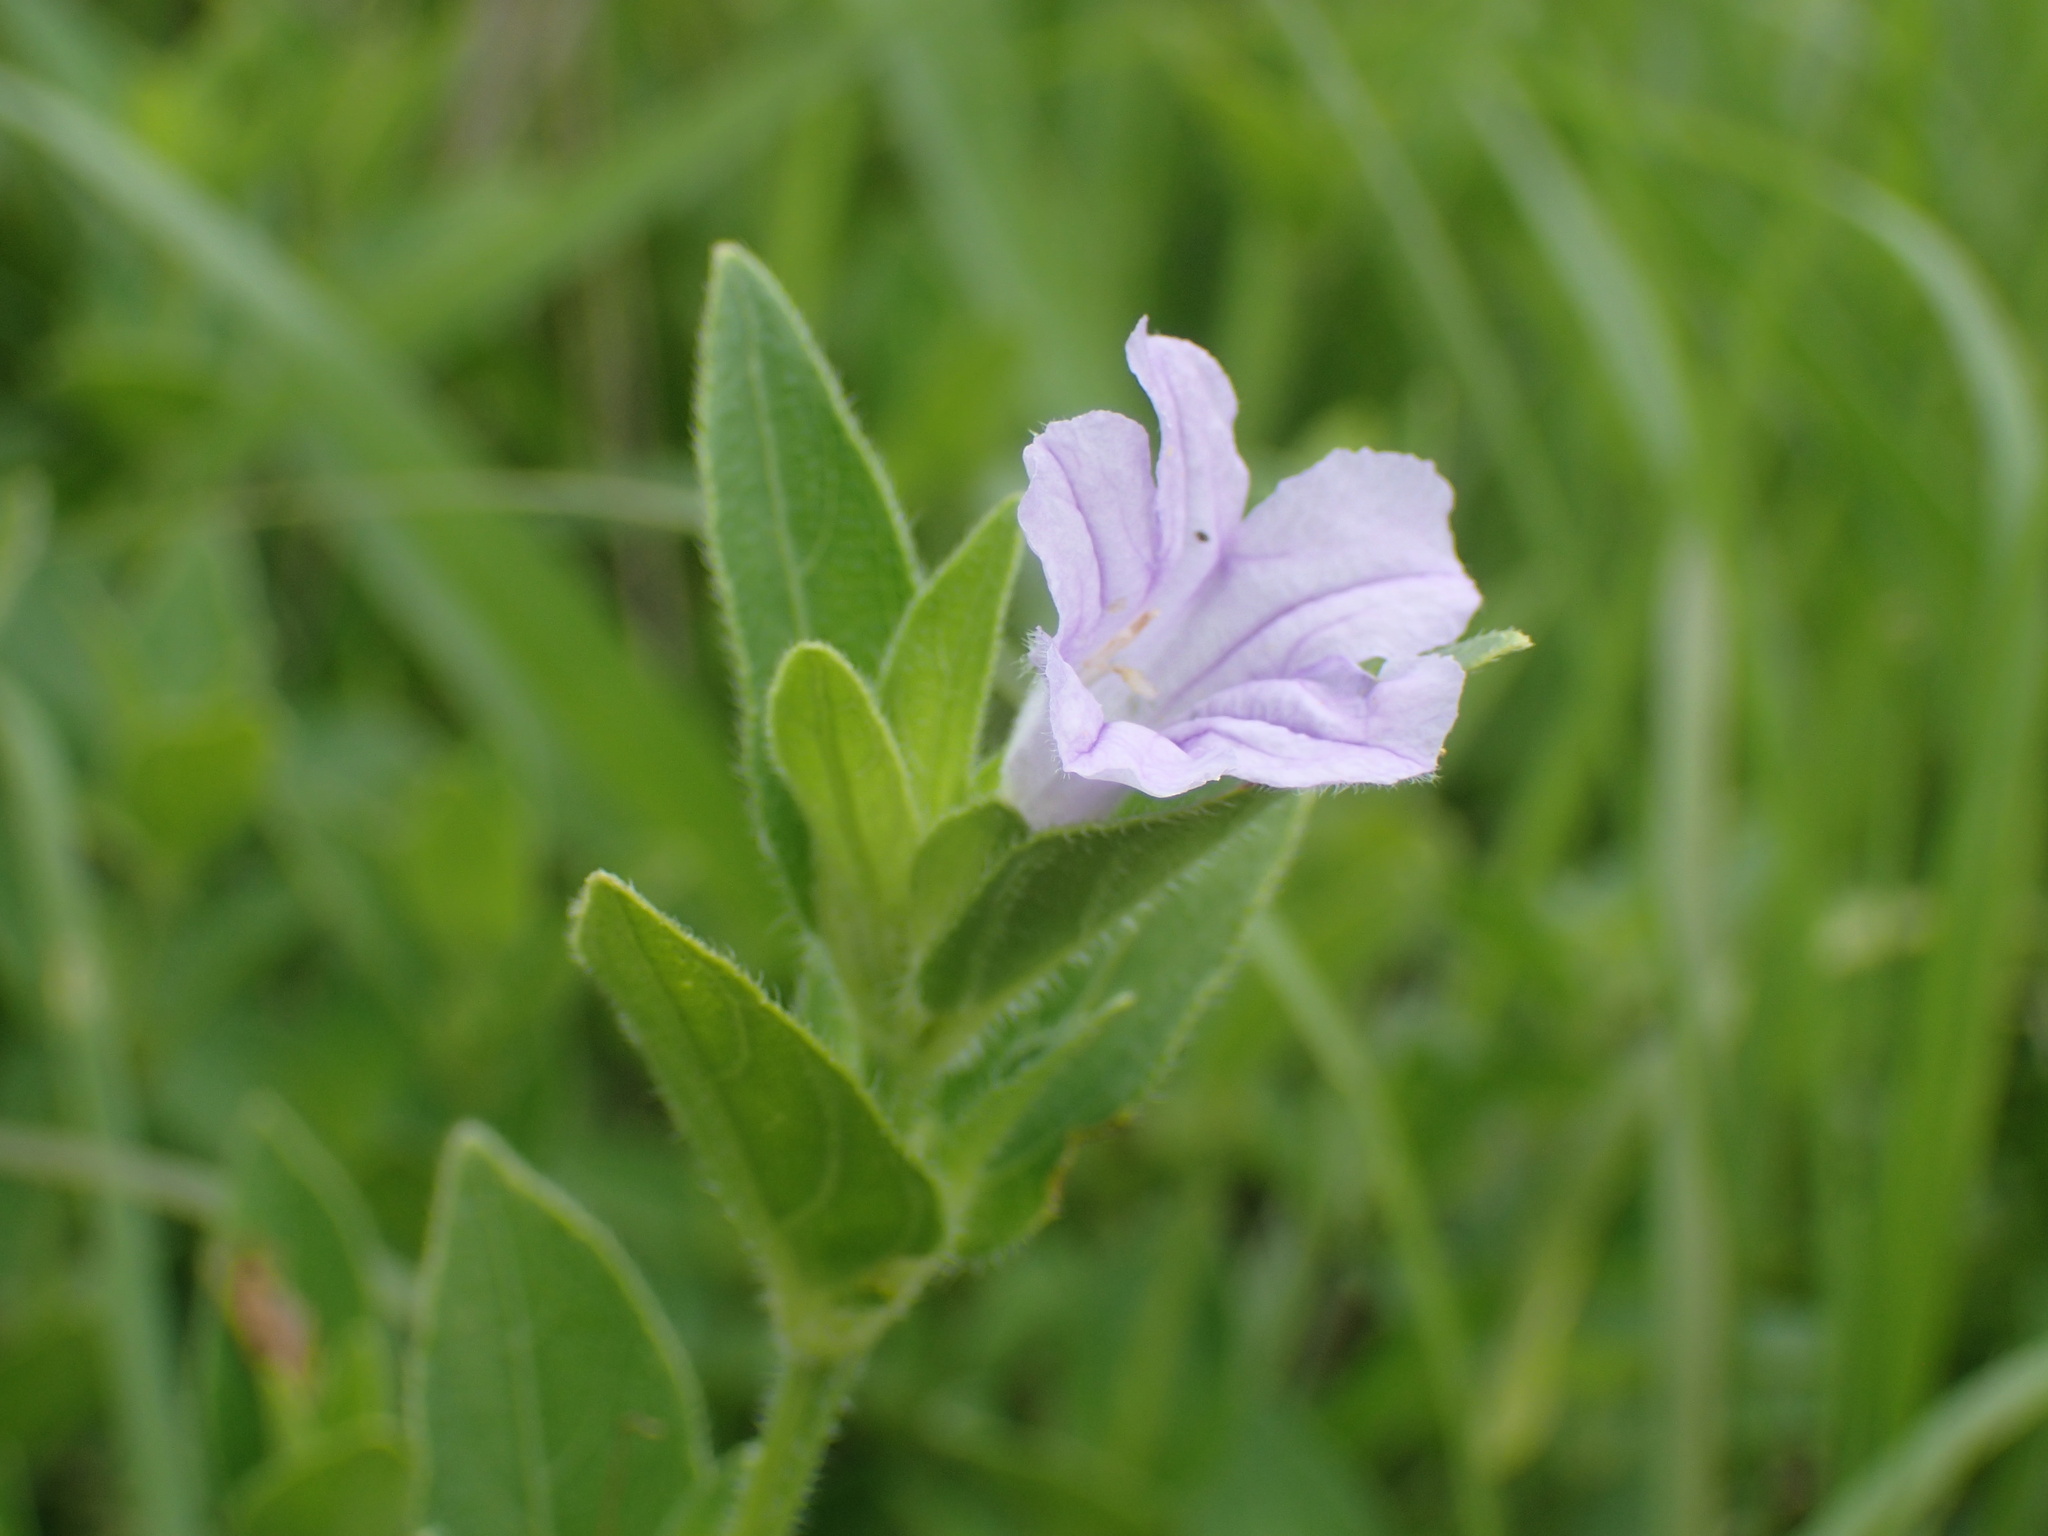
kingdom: Plantae
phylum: Tracheophyta
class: Magnoliopsida
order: Lamiales
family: Acanthaceae
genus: Ruellia
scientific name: Ruellia cordata
